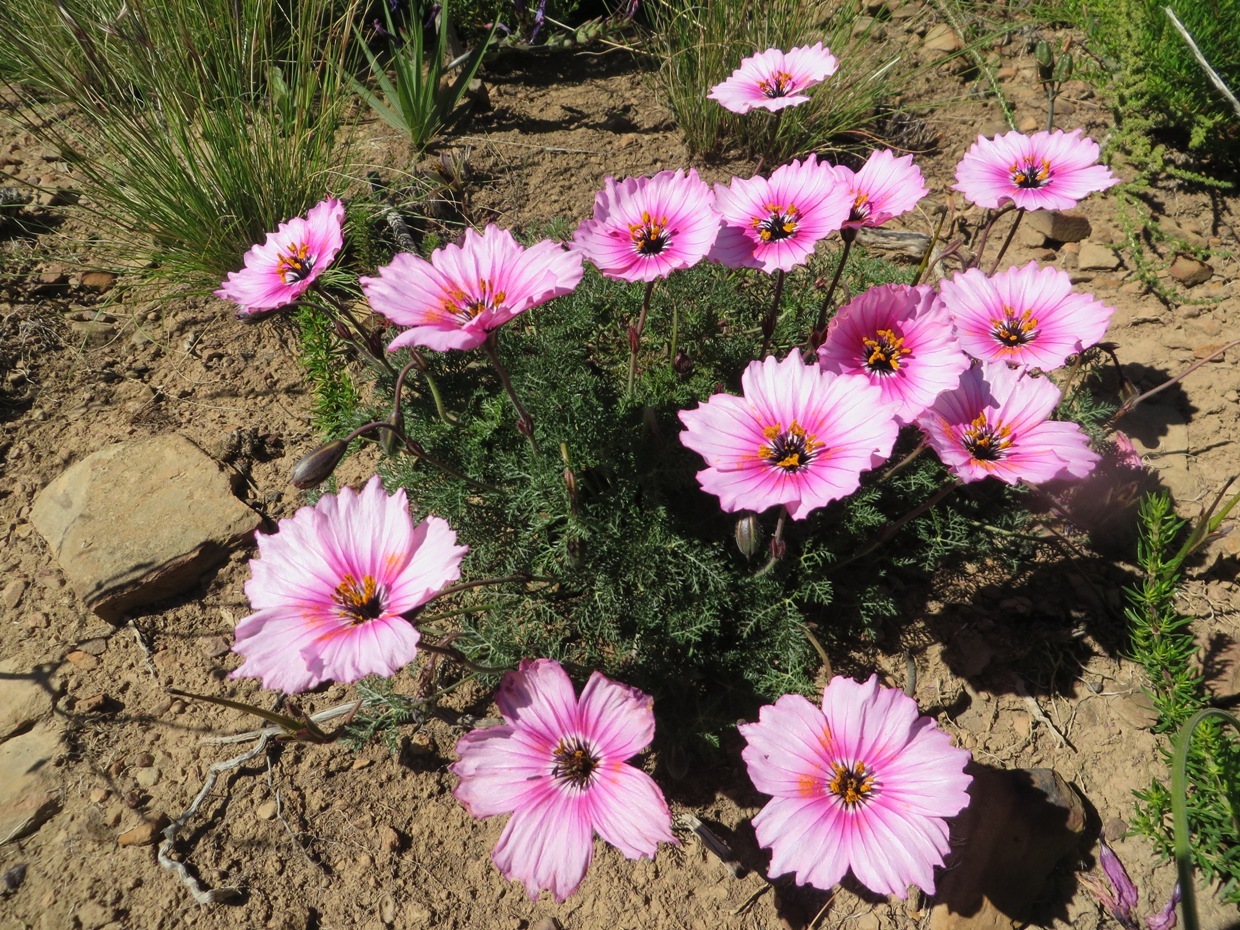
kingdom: Plantae
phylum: Tracheophyta
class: Magnoliopsida
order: Geraniales
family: Geraniaceae
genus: Monsonia
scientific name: Monsonia speciosa
